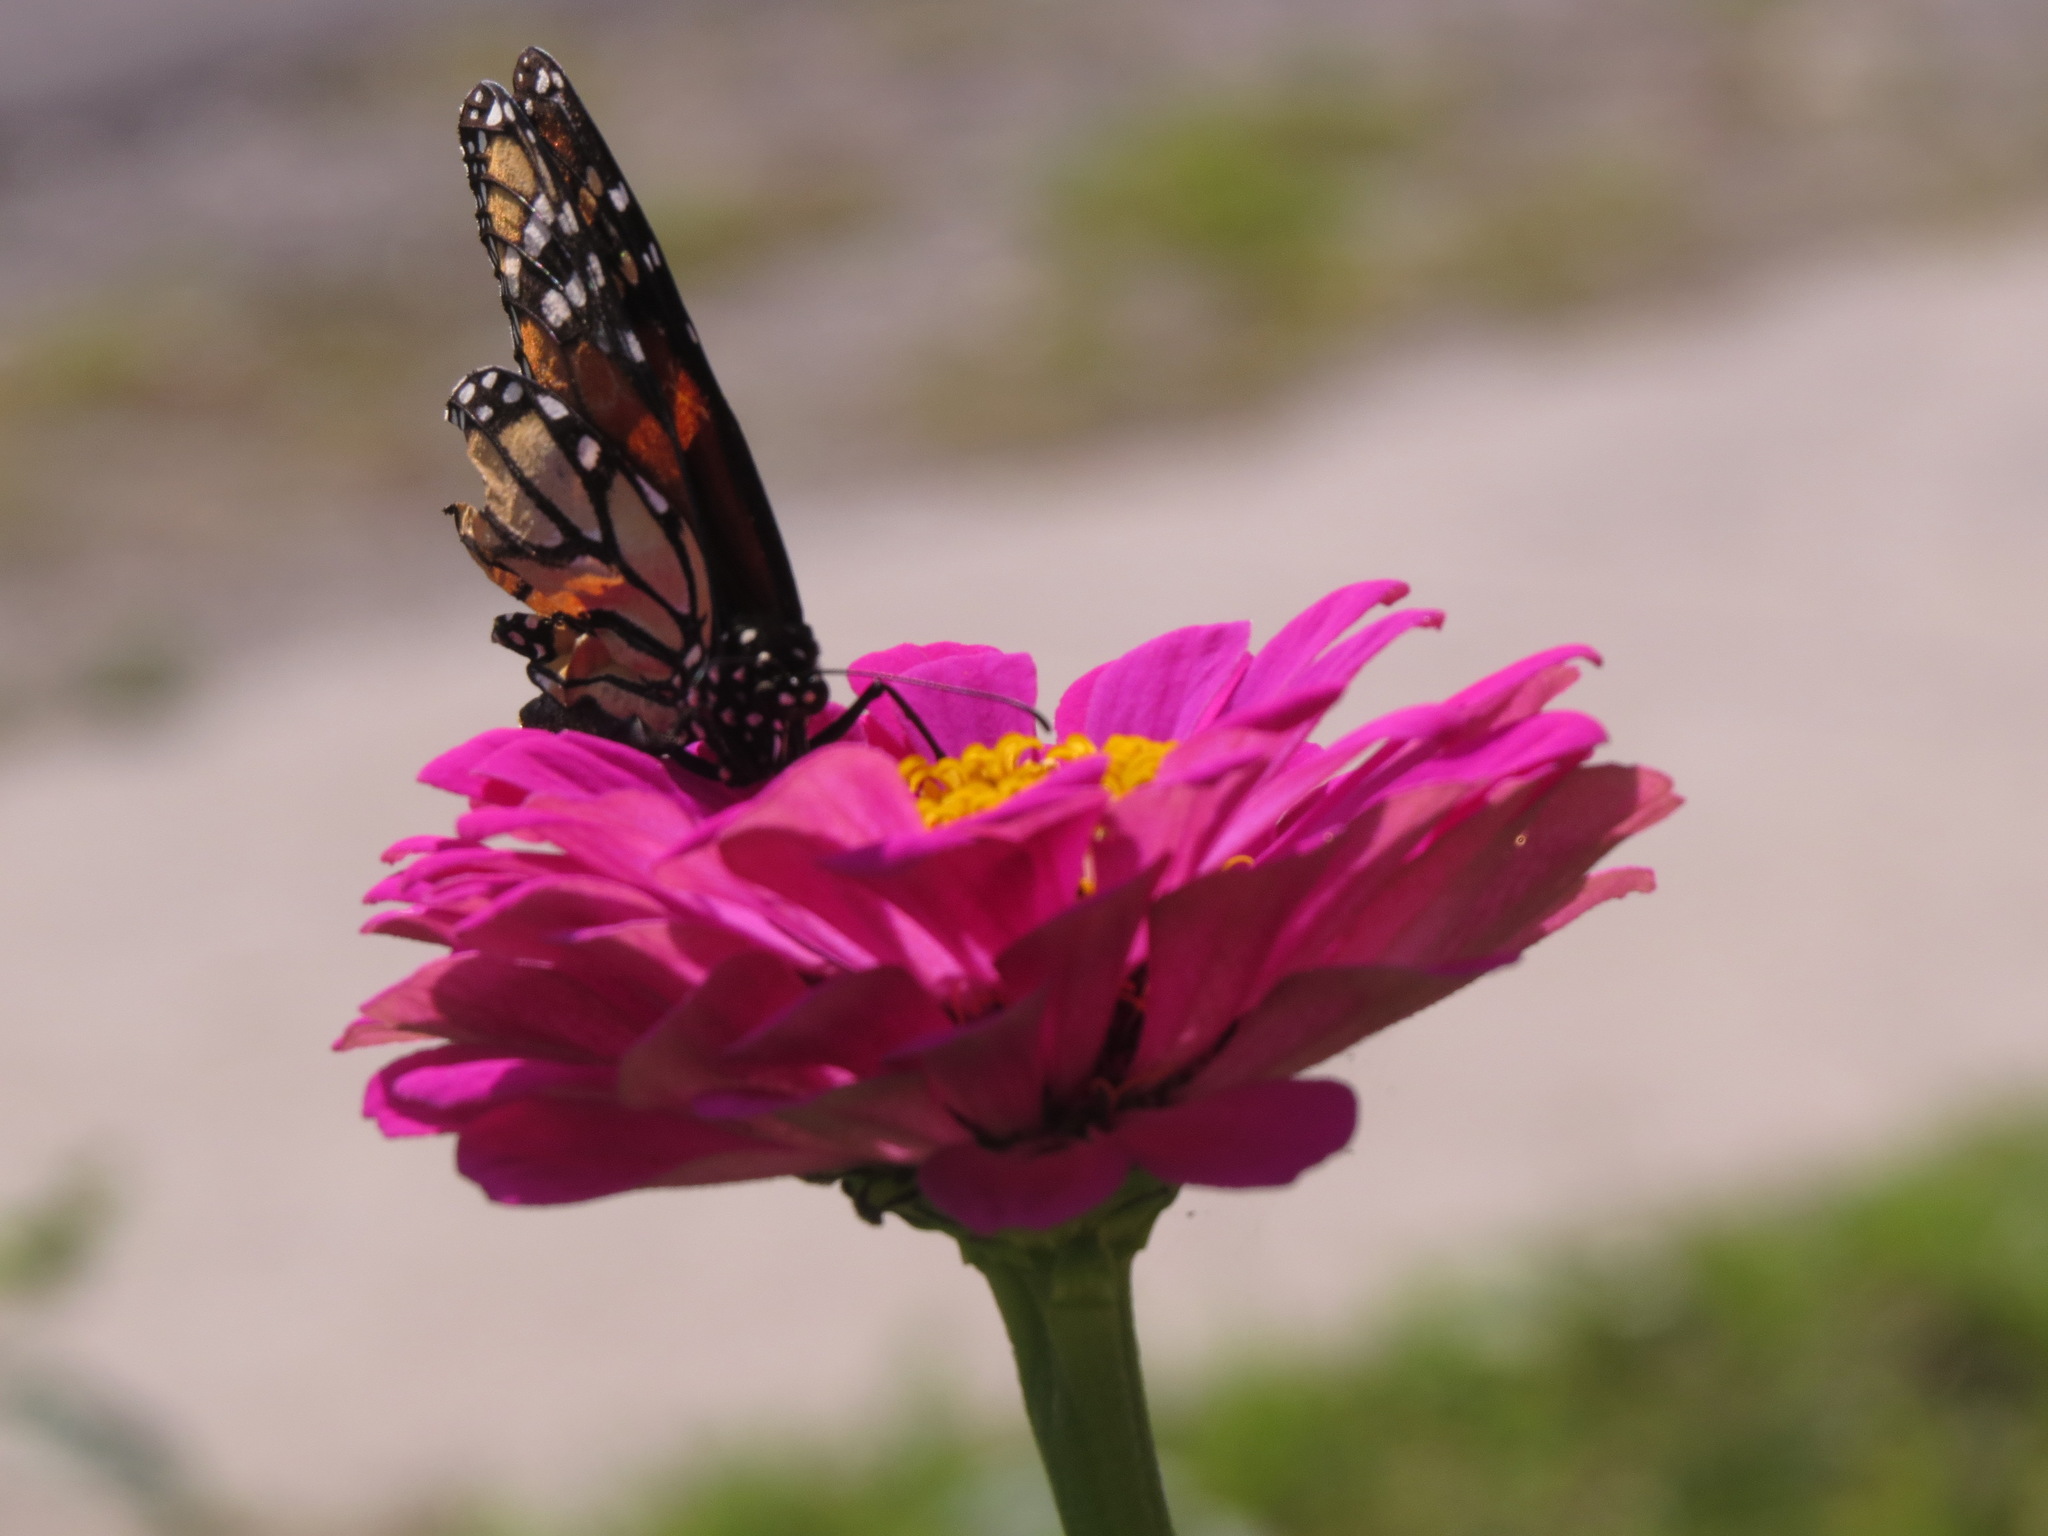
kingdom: Animalia
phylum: Arthropoda
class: Insecta
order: Lepidoptera
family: Nymphalidae
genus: Danaus
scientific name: Danaus plexippus
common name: Monarch
